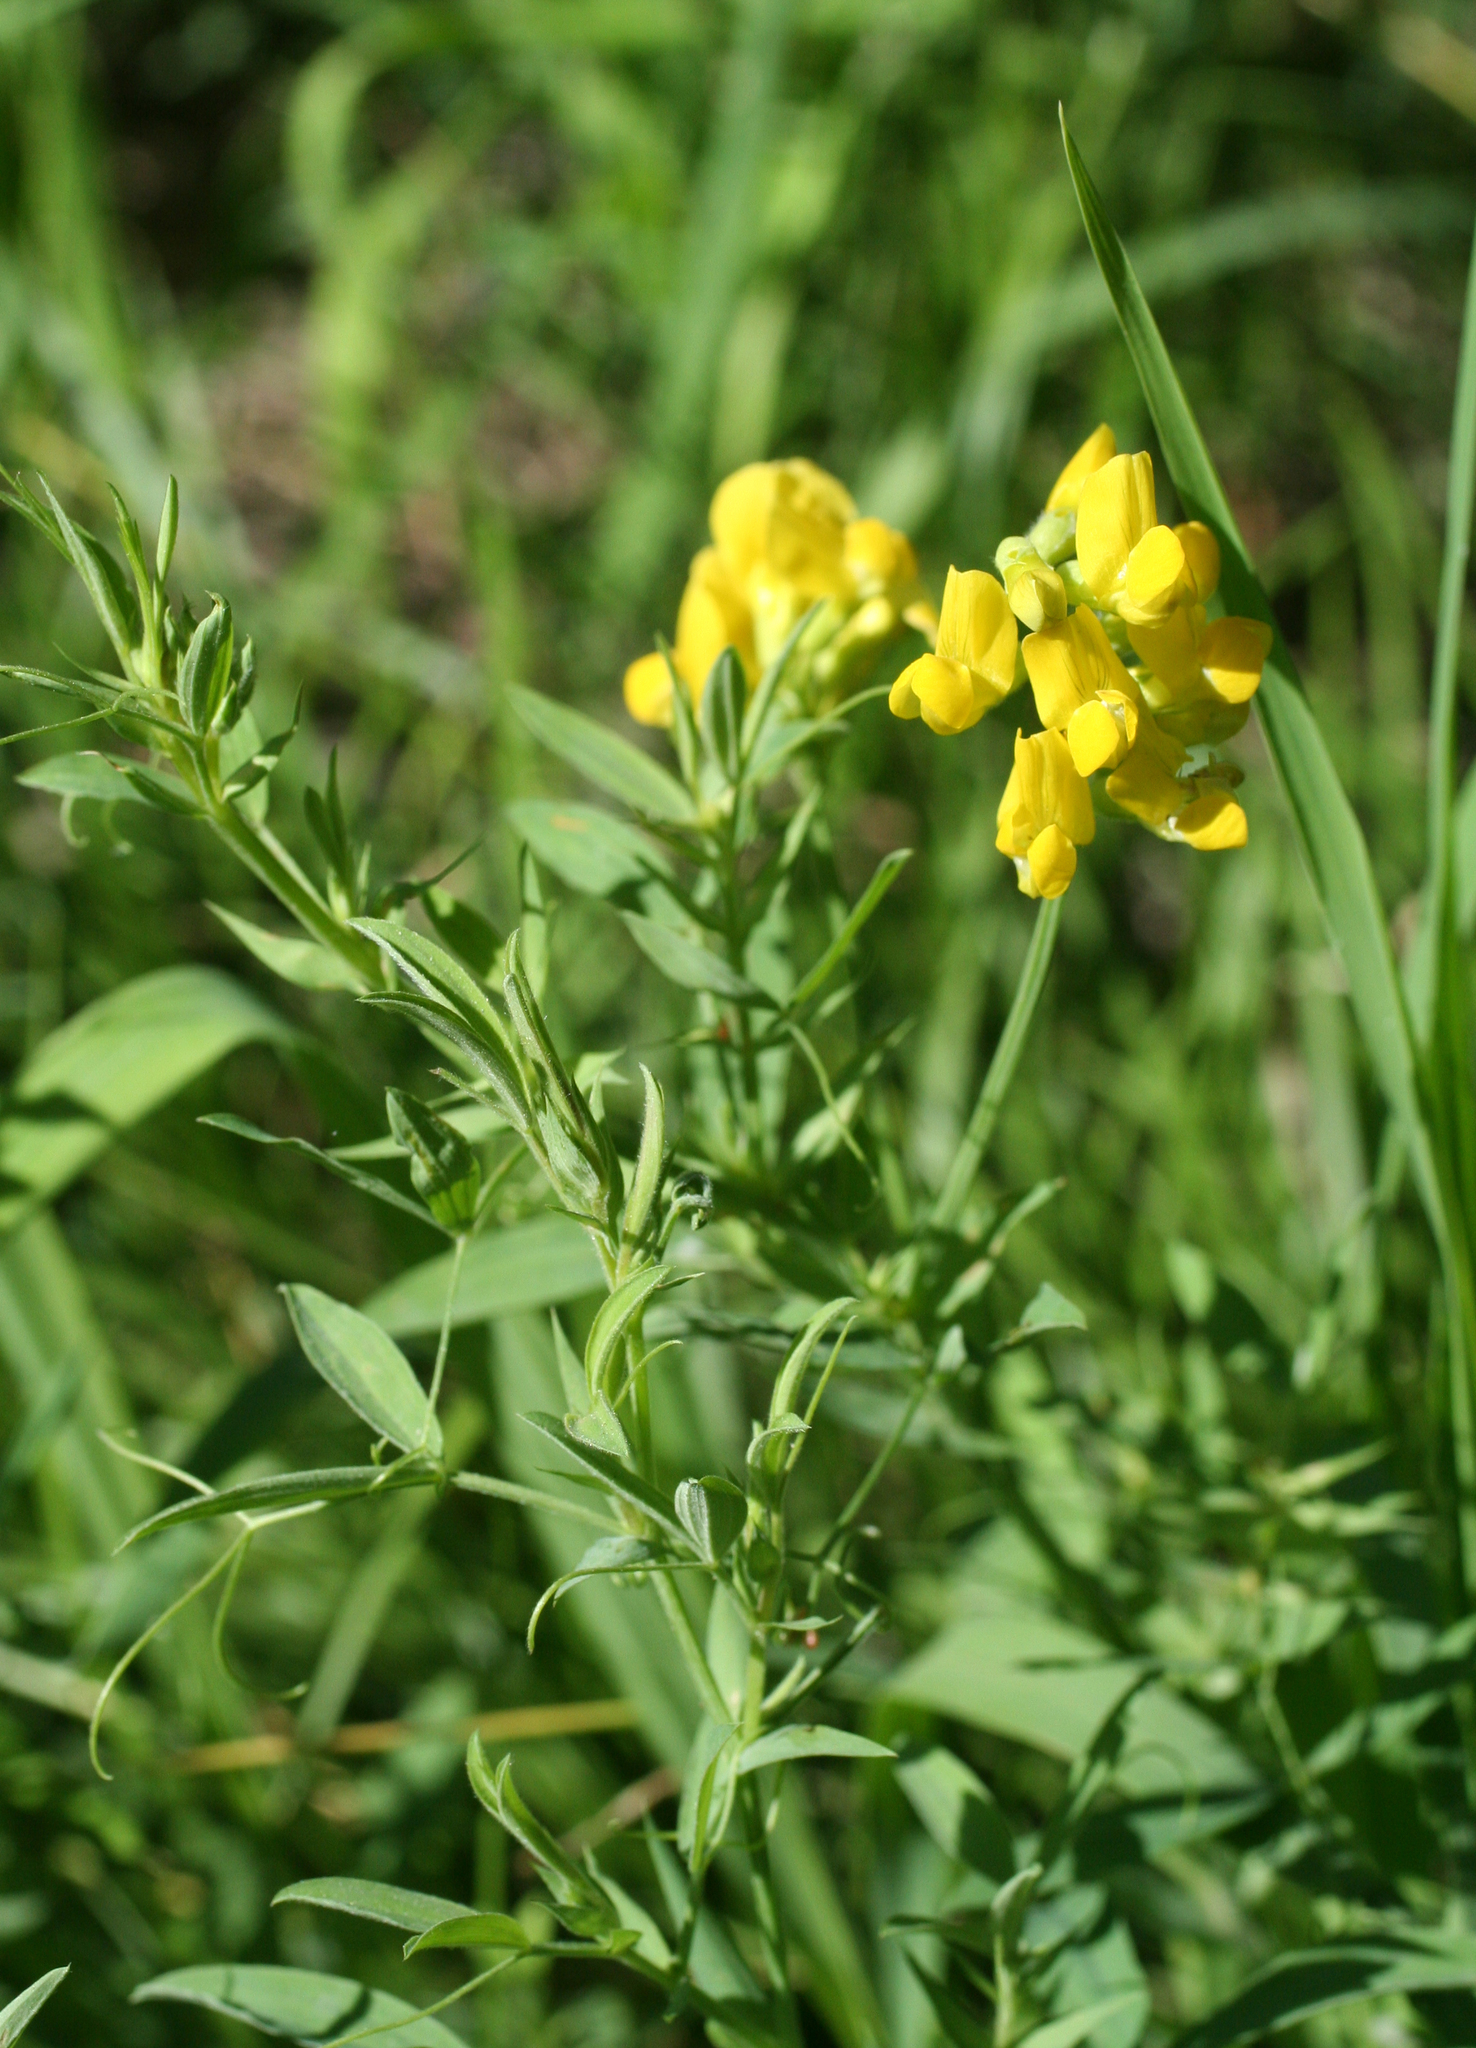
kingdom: Plantae
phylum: Tracheophyta
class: Magnoliopsida
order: Fabales
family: Fabaceae
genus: Lathyrus
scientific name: Lathyrus pratensis
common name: Meadow vetchling
